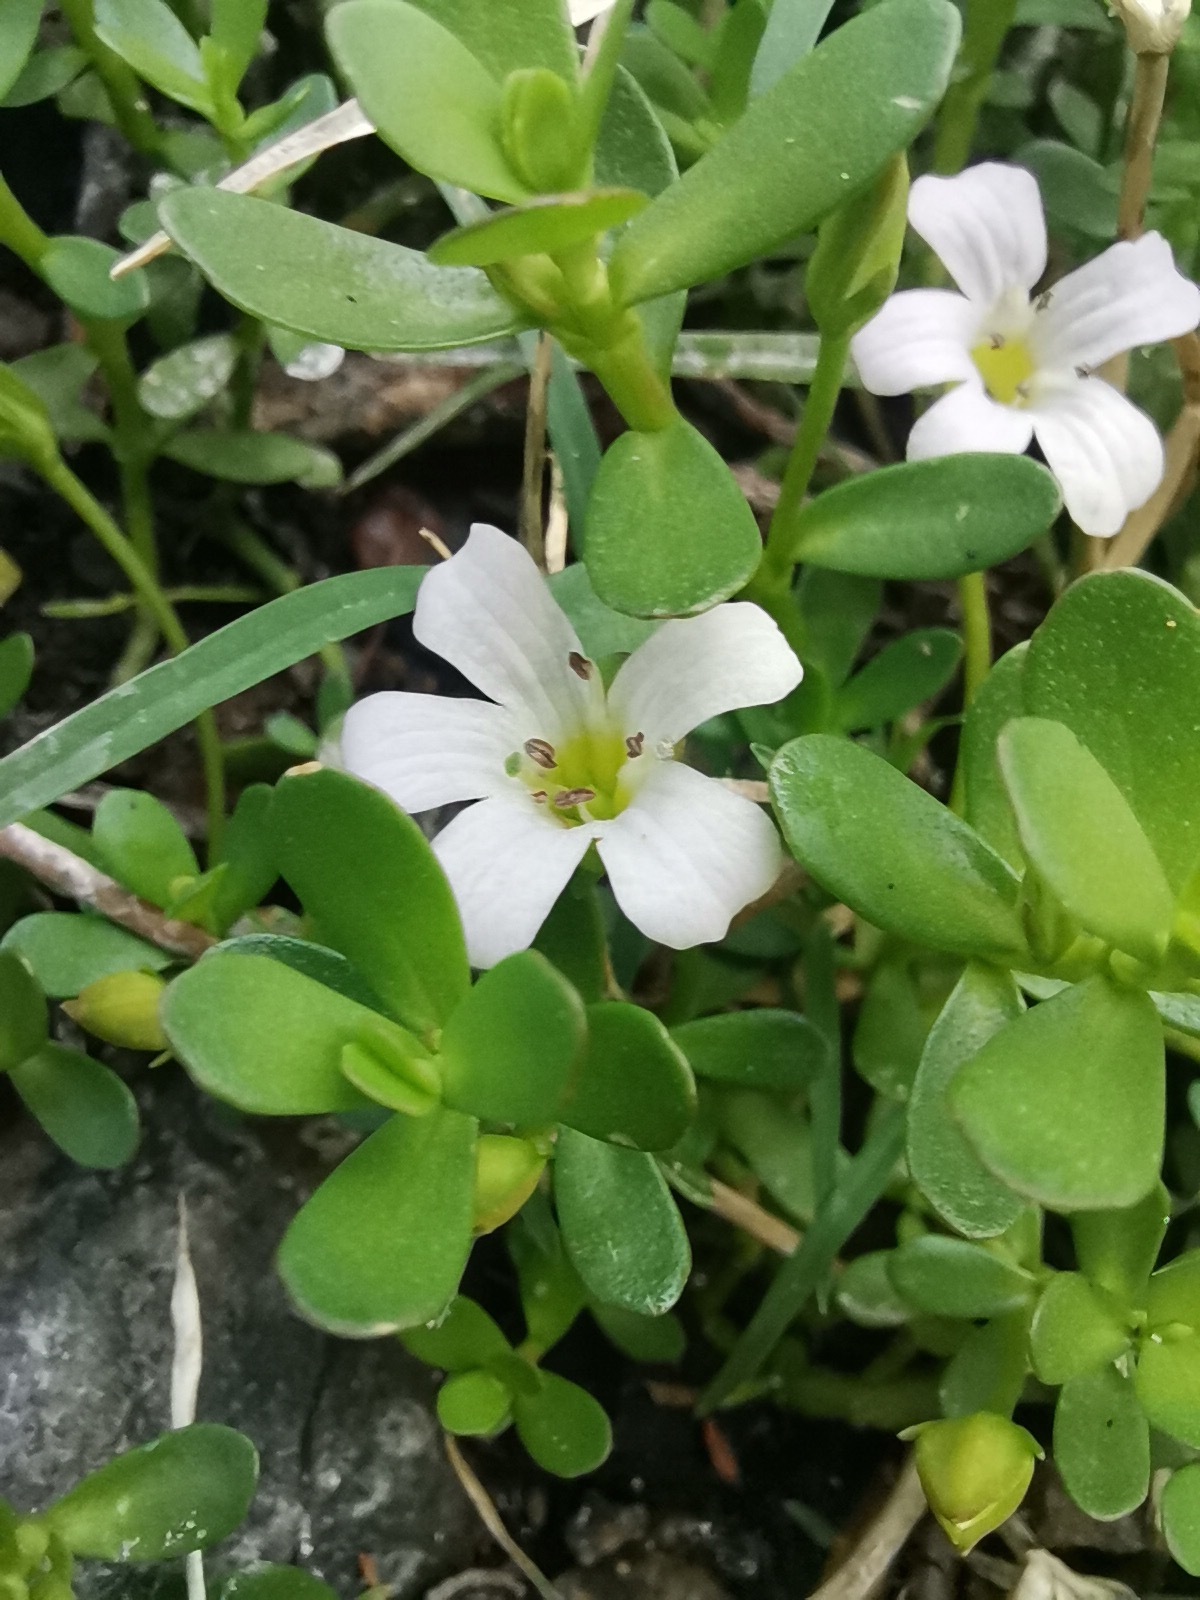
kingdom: Plantae
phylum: Tracheophyta
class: Magnoliopsida
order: Lamiales
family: Plantaginaceae
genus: Bacopa
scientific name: Bacopa monnieri
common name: Indian-pennywort
